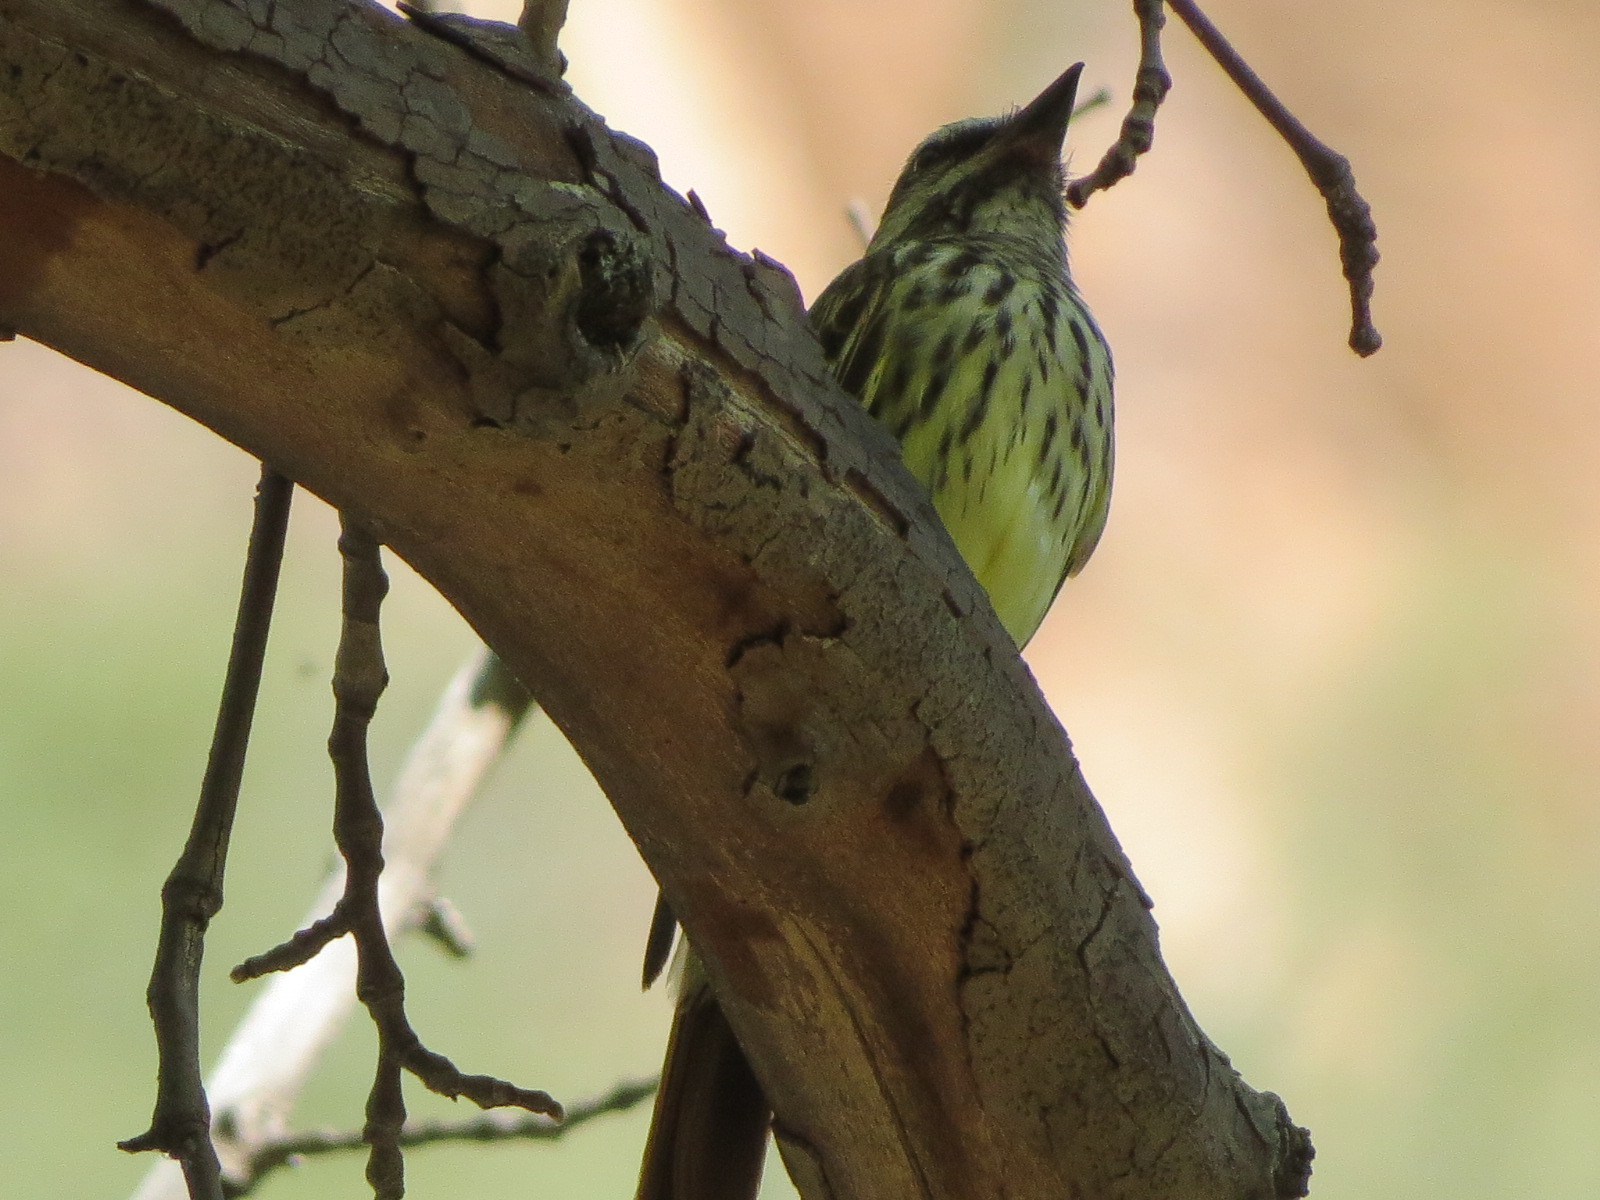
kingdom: Animalia
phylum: Chordata
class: Aves
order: Passeriformes
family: Tyrannidae
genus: Myiodynastes
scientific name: Myiodynastes luteiventris
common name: Sulphur-bellied flycatcher
